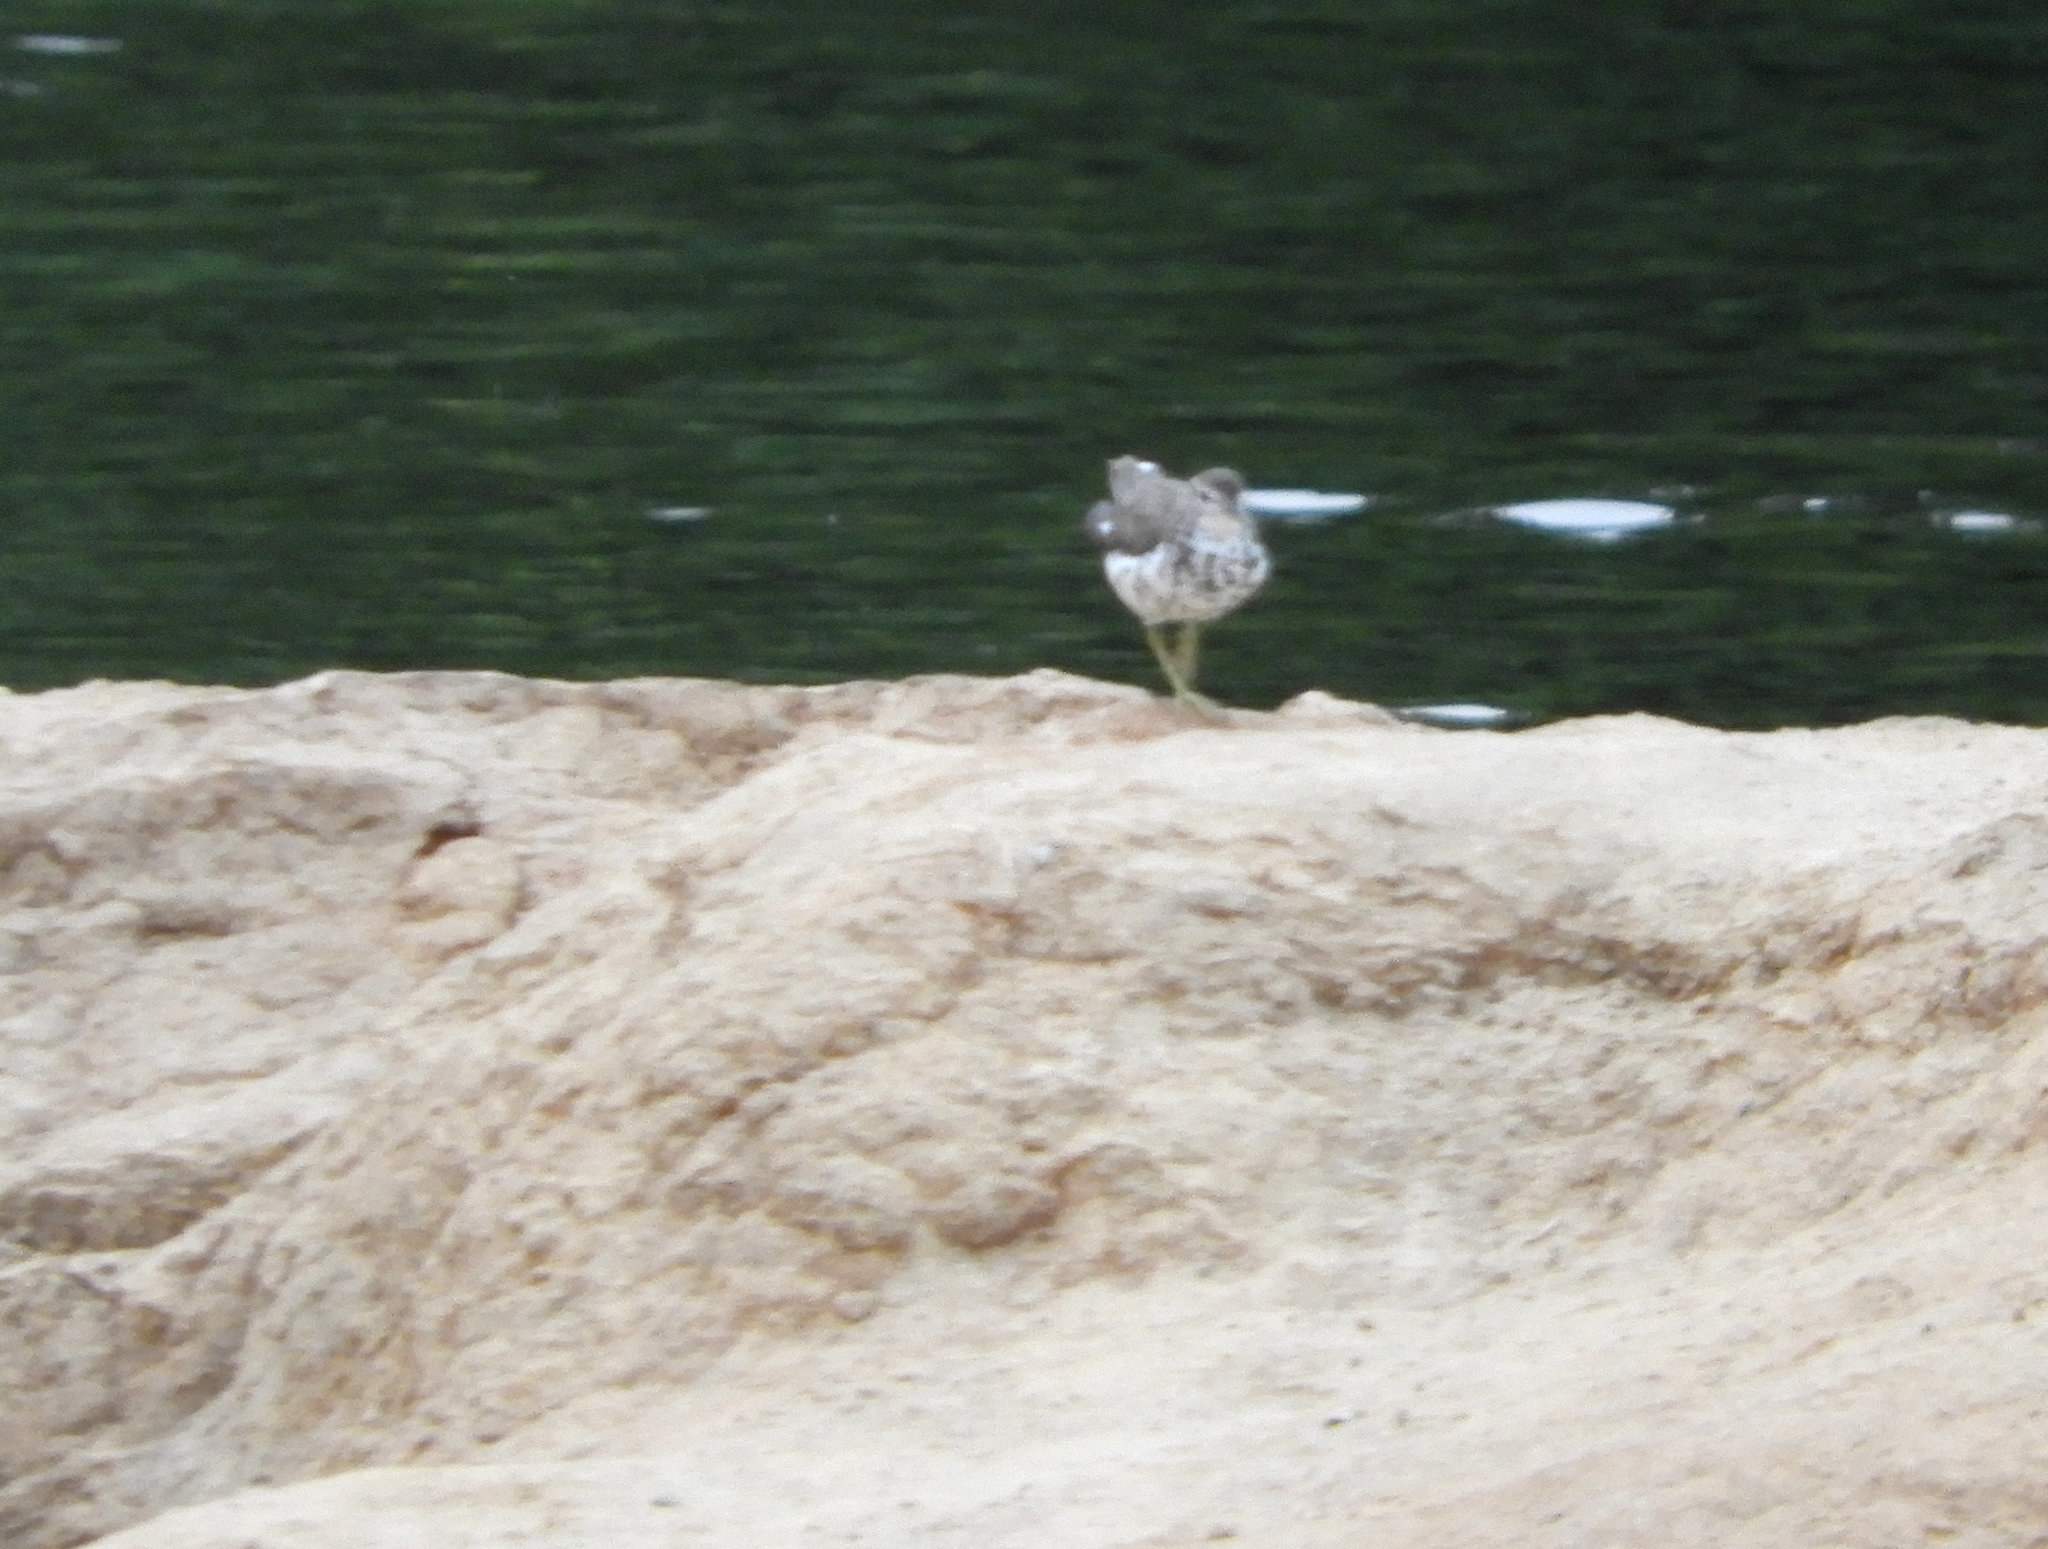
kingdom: Animalia
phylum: Chordata
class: Aves
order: Charadriiformes
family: Scolopacidae
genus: Actitis
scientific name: Actitis macularius
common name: Spotted sandpiper
